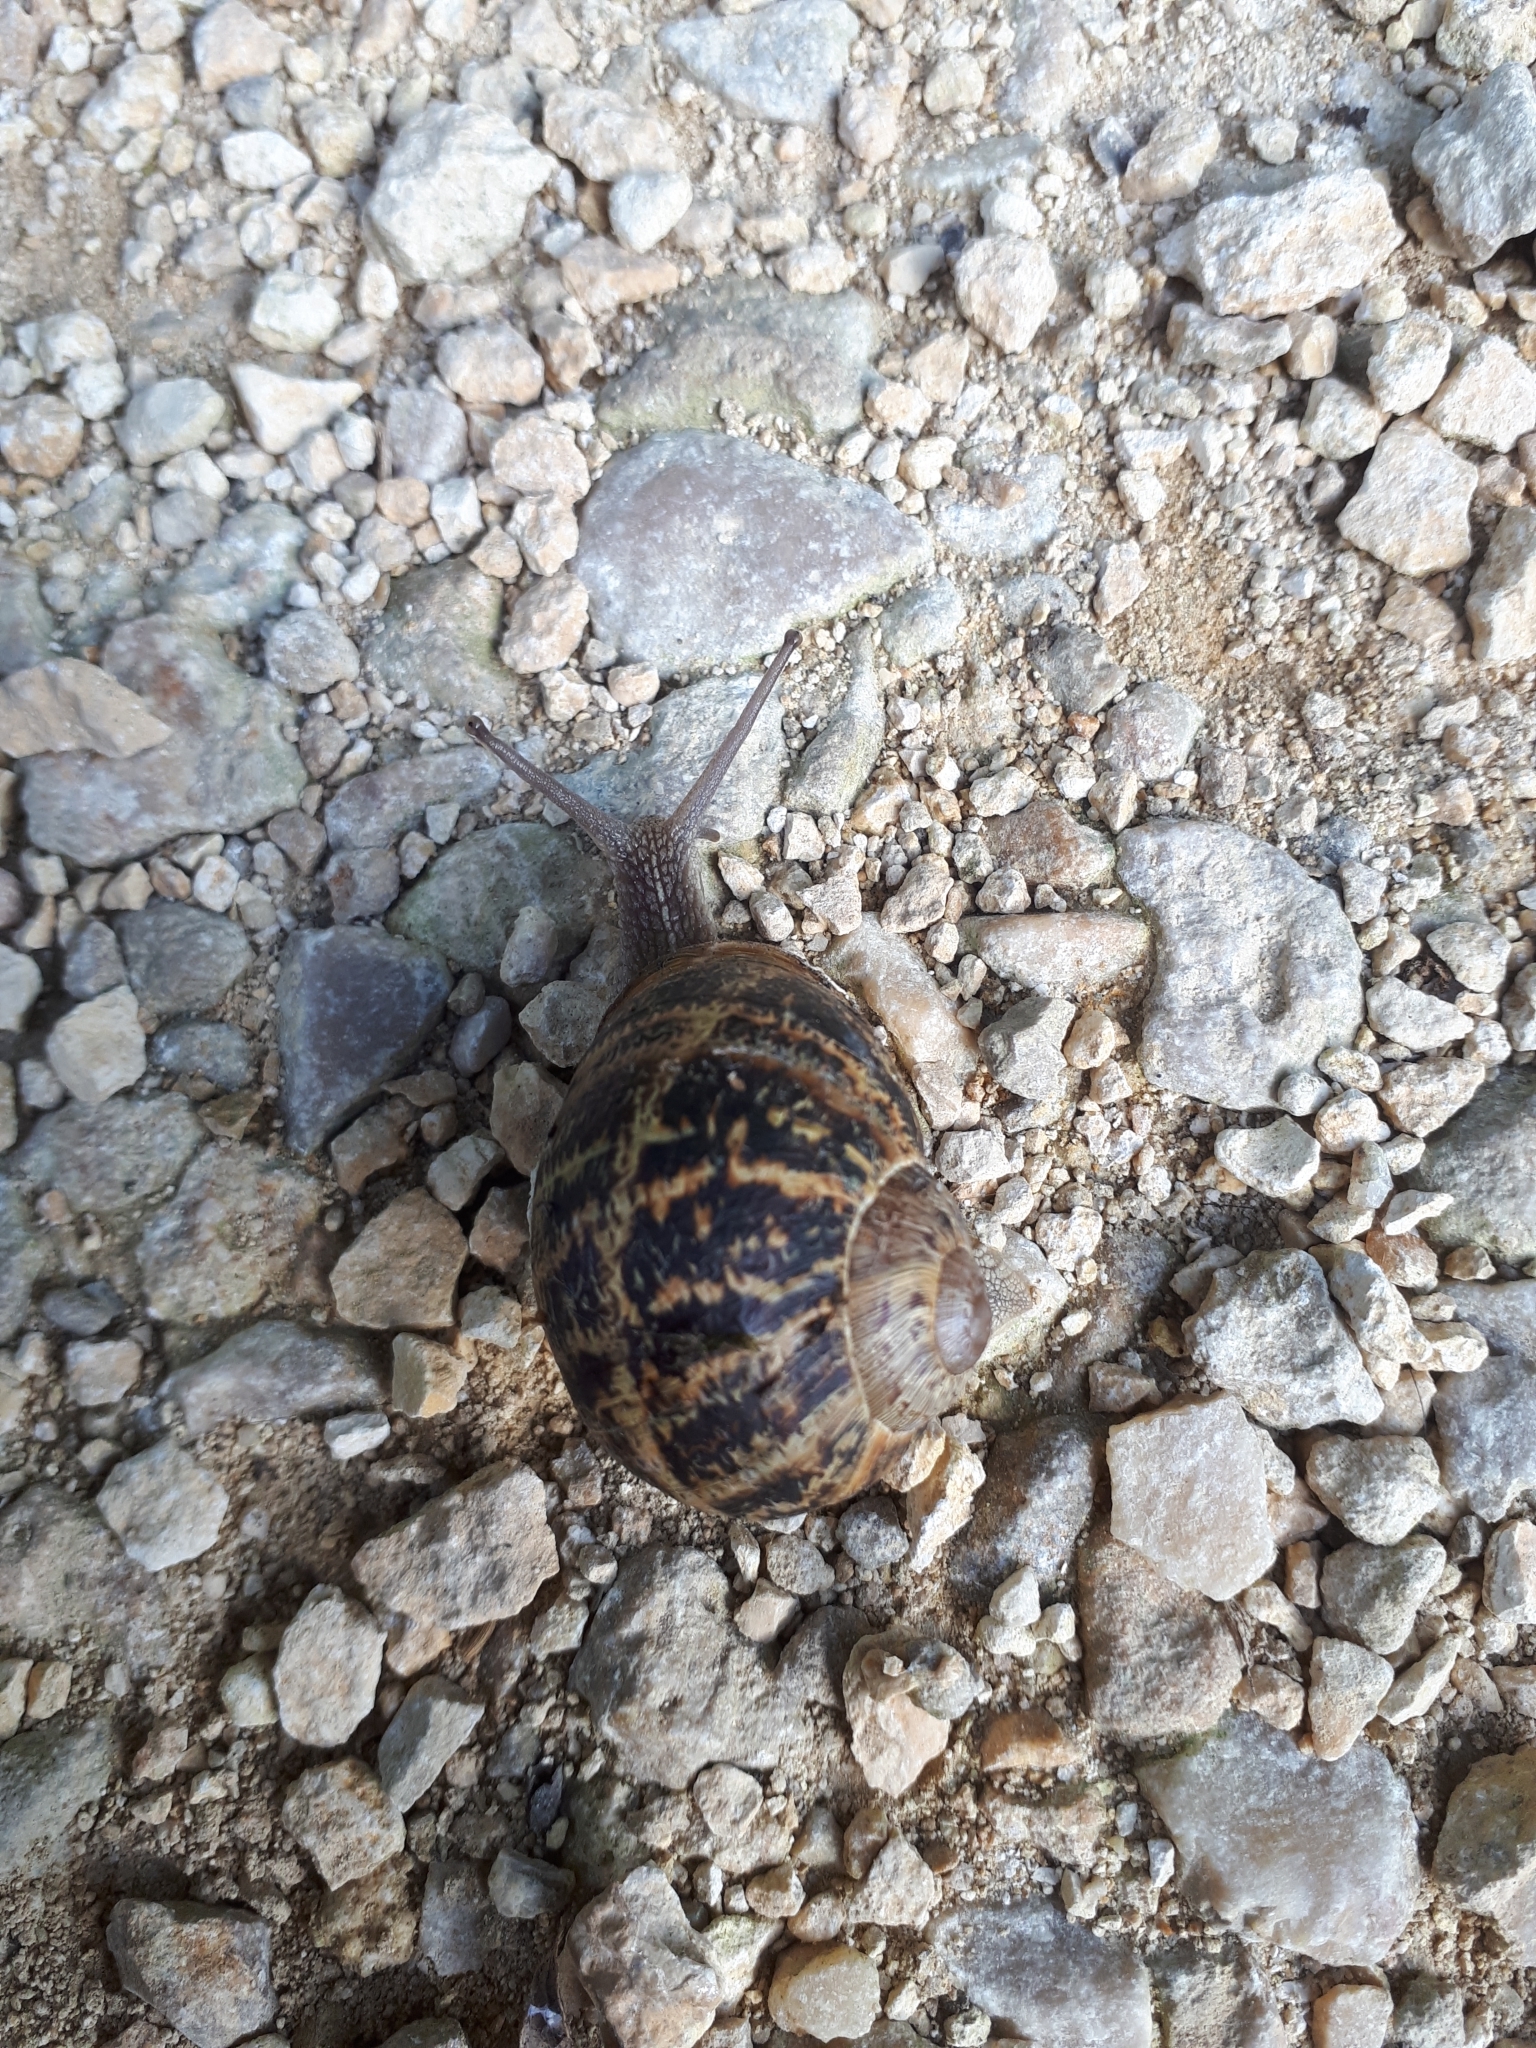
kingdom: Animalia
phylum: Mollusca
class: Gastropoda
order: Stylommatophora
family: Helicidae
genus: Cornu
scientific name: Cornu aspersum
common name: Brown garden snail
